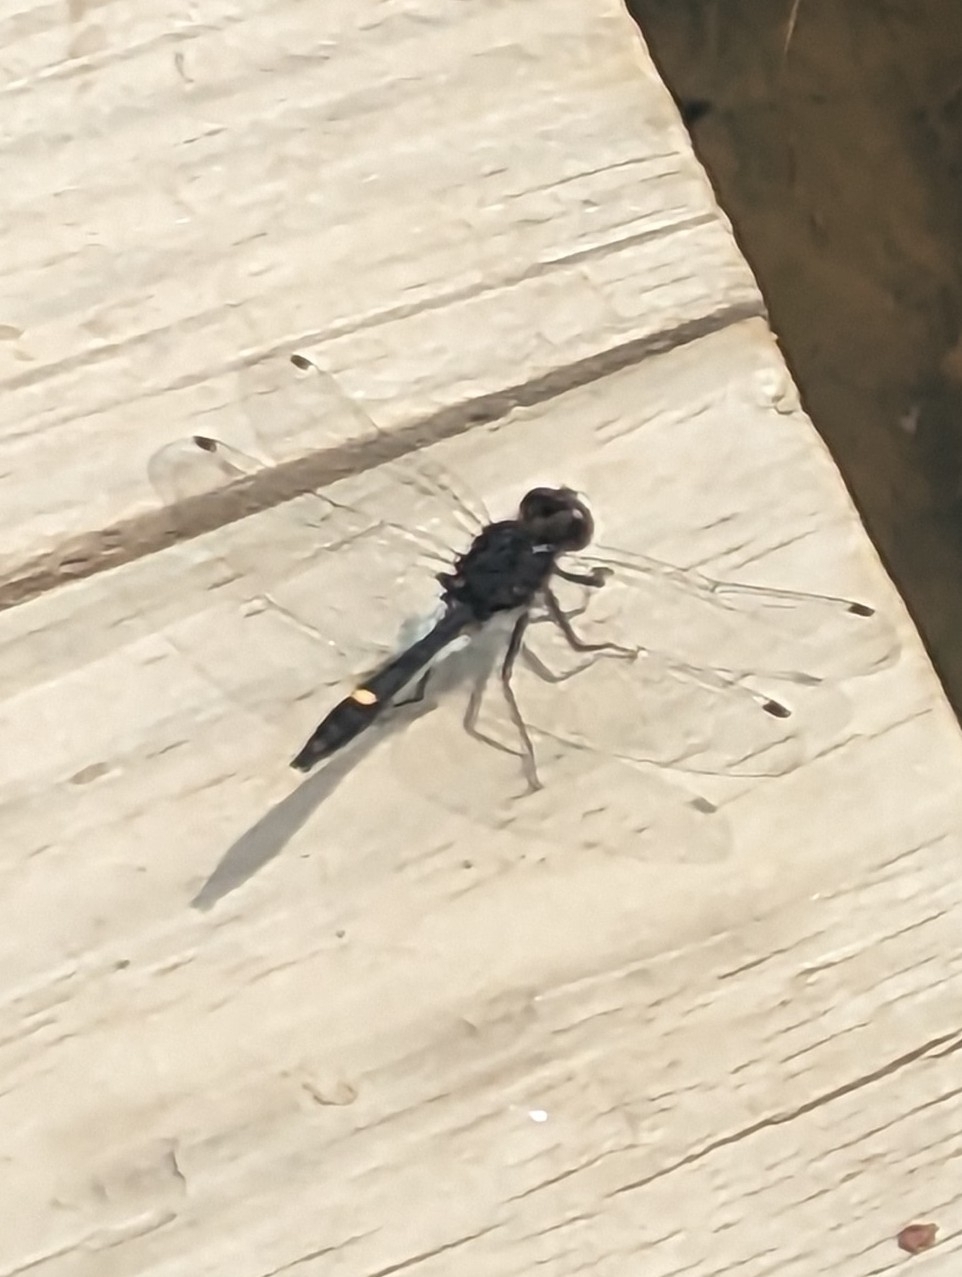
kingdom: Animalia
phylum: Arthropoda
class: Insecta
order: Odonata
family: Libellulidae
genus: Leucorrhinia
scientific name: Leucorrhinia intacta
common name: Dot-tailed whiteface
